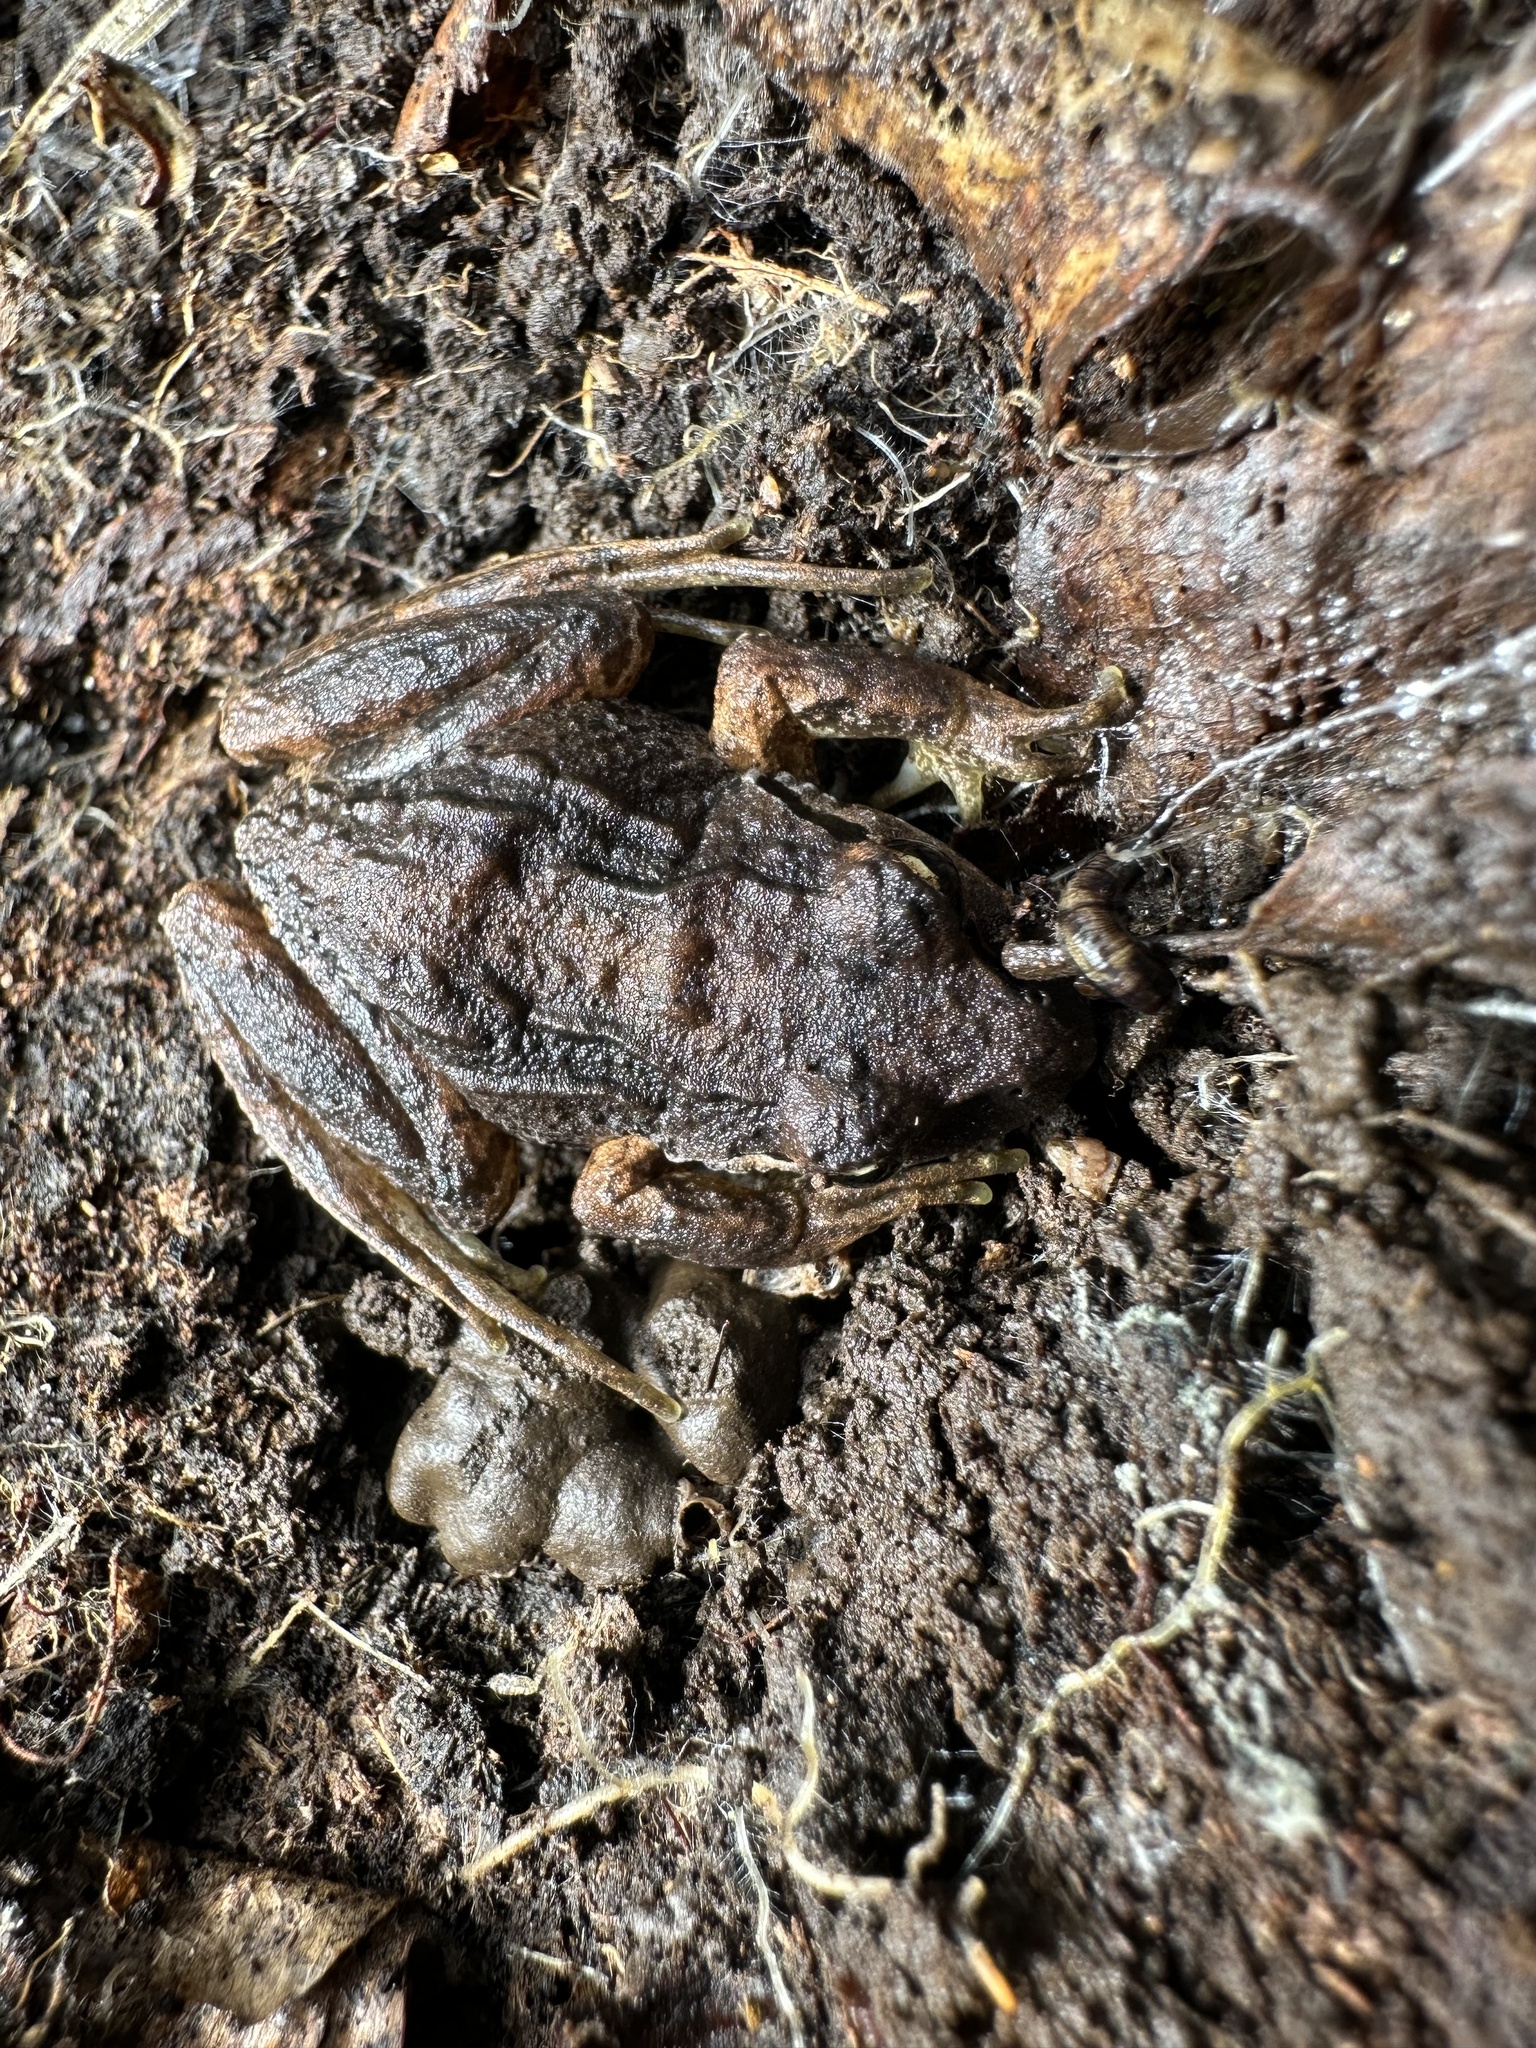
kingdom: Animalia
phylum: Chordata
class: Amphibia
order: Anura
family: Batrachylidae
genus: Batrachyla
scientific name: Batrachyla taeniata
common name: Banded wood frog
